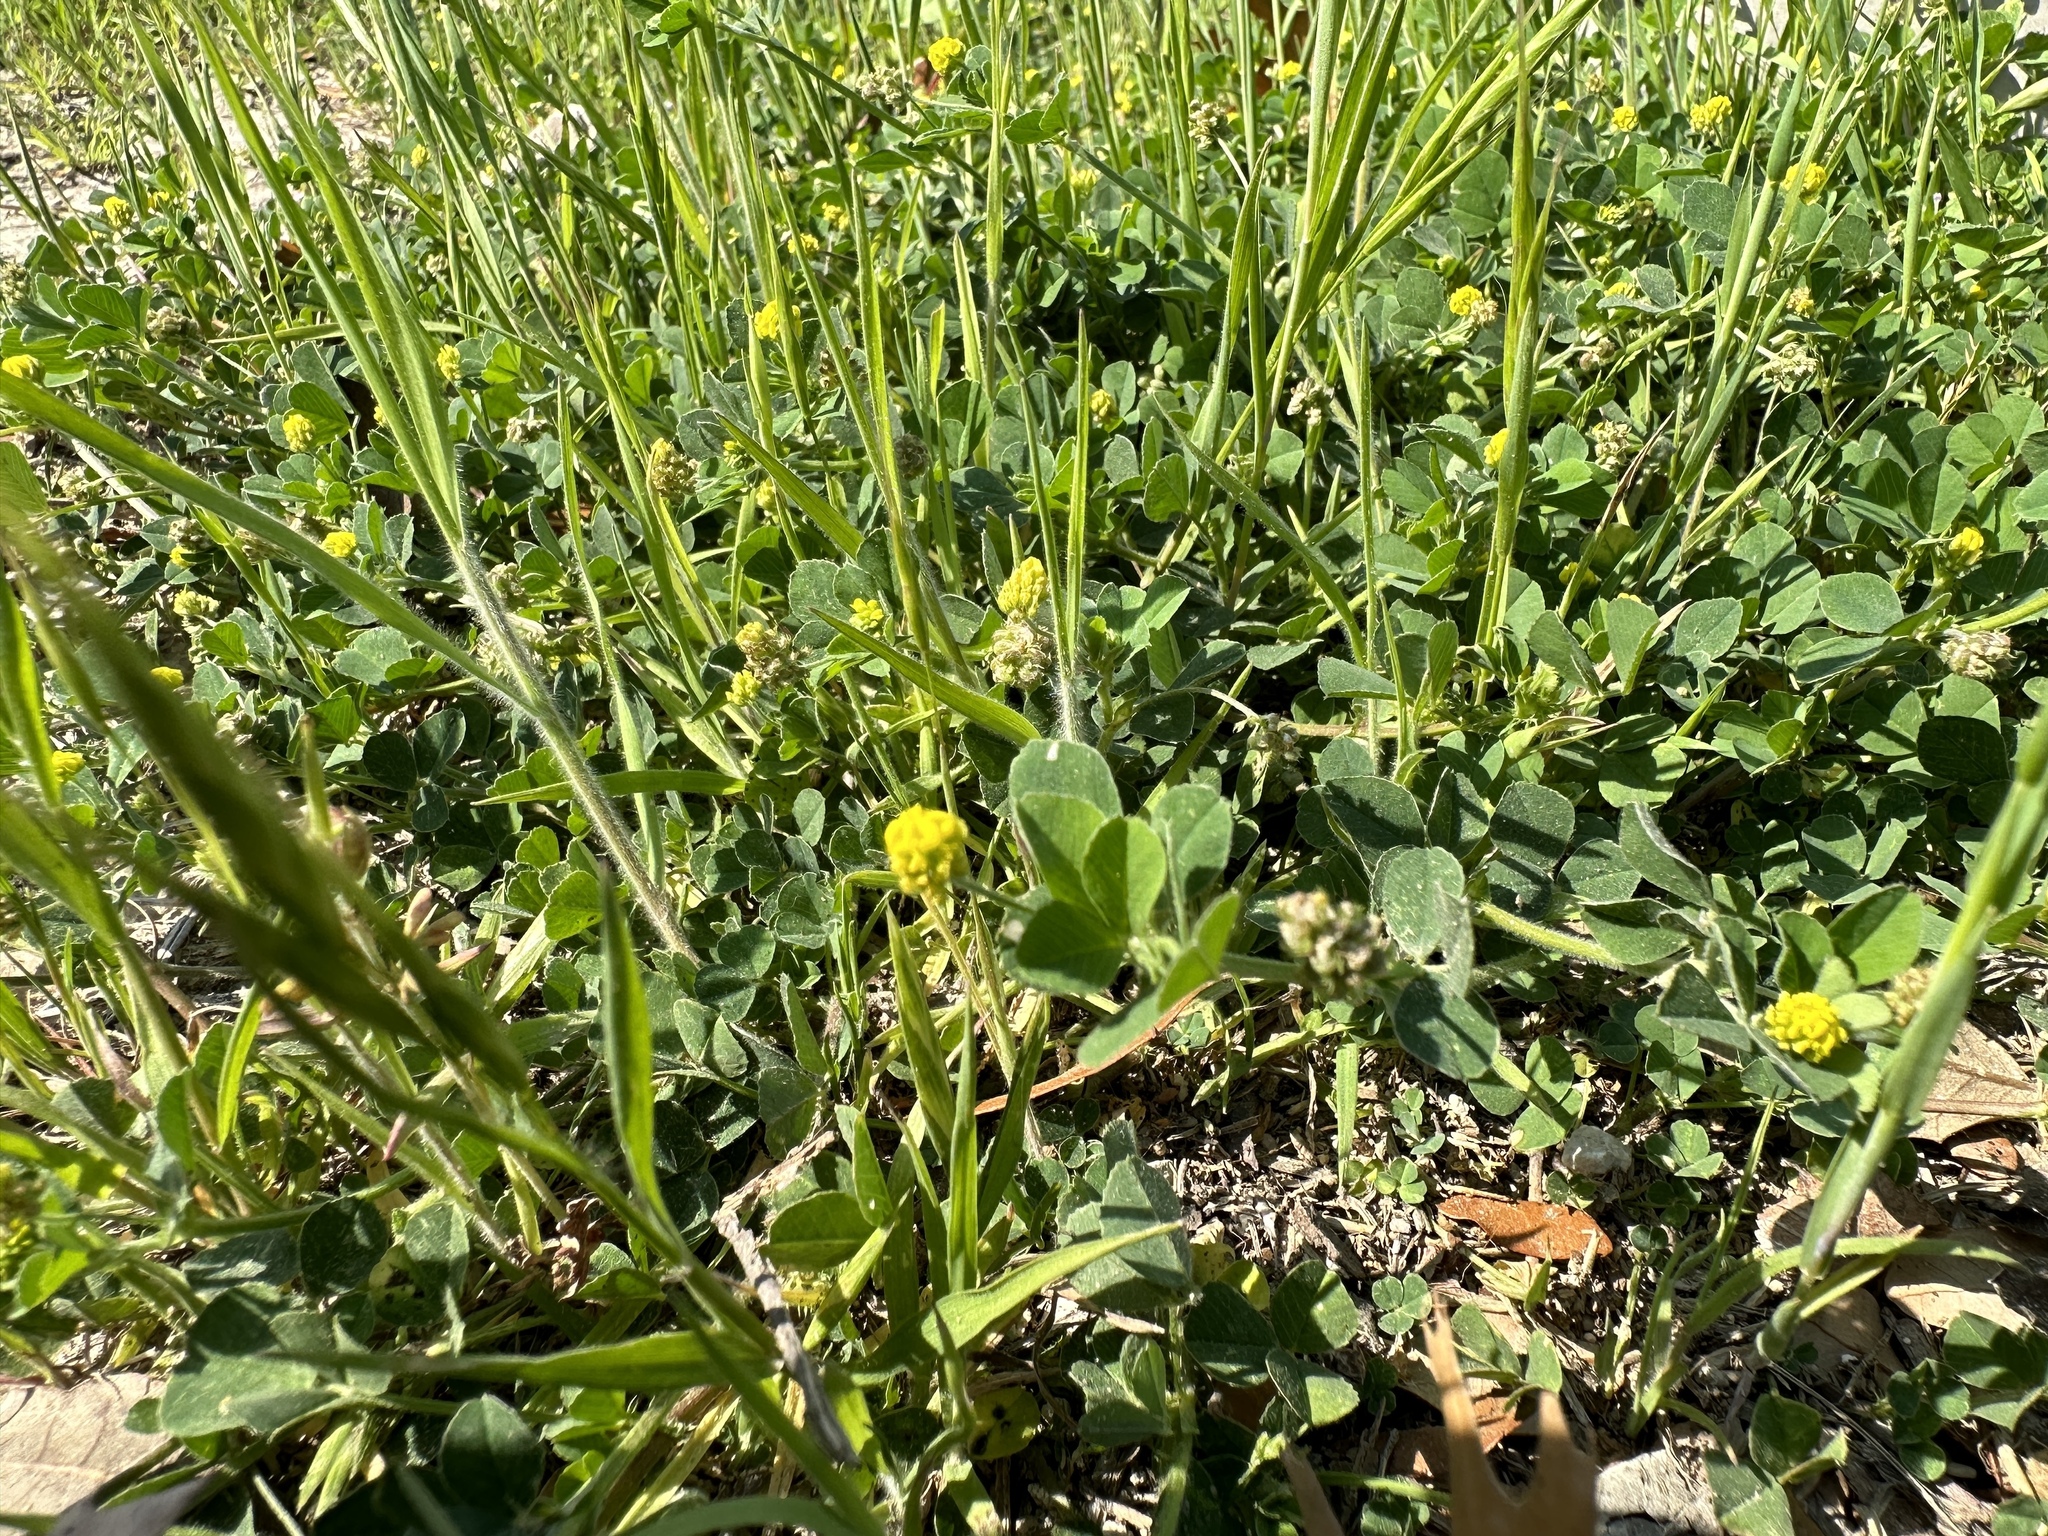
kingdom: Plantae
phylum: Tracheophyta
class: Magnoliopsida
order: Fabales
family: Fabaceae
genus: Medicago
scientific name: Medicago lupulina
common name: Black medick
